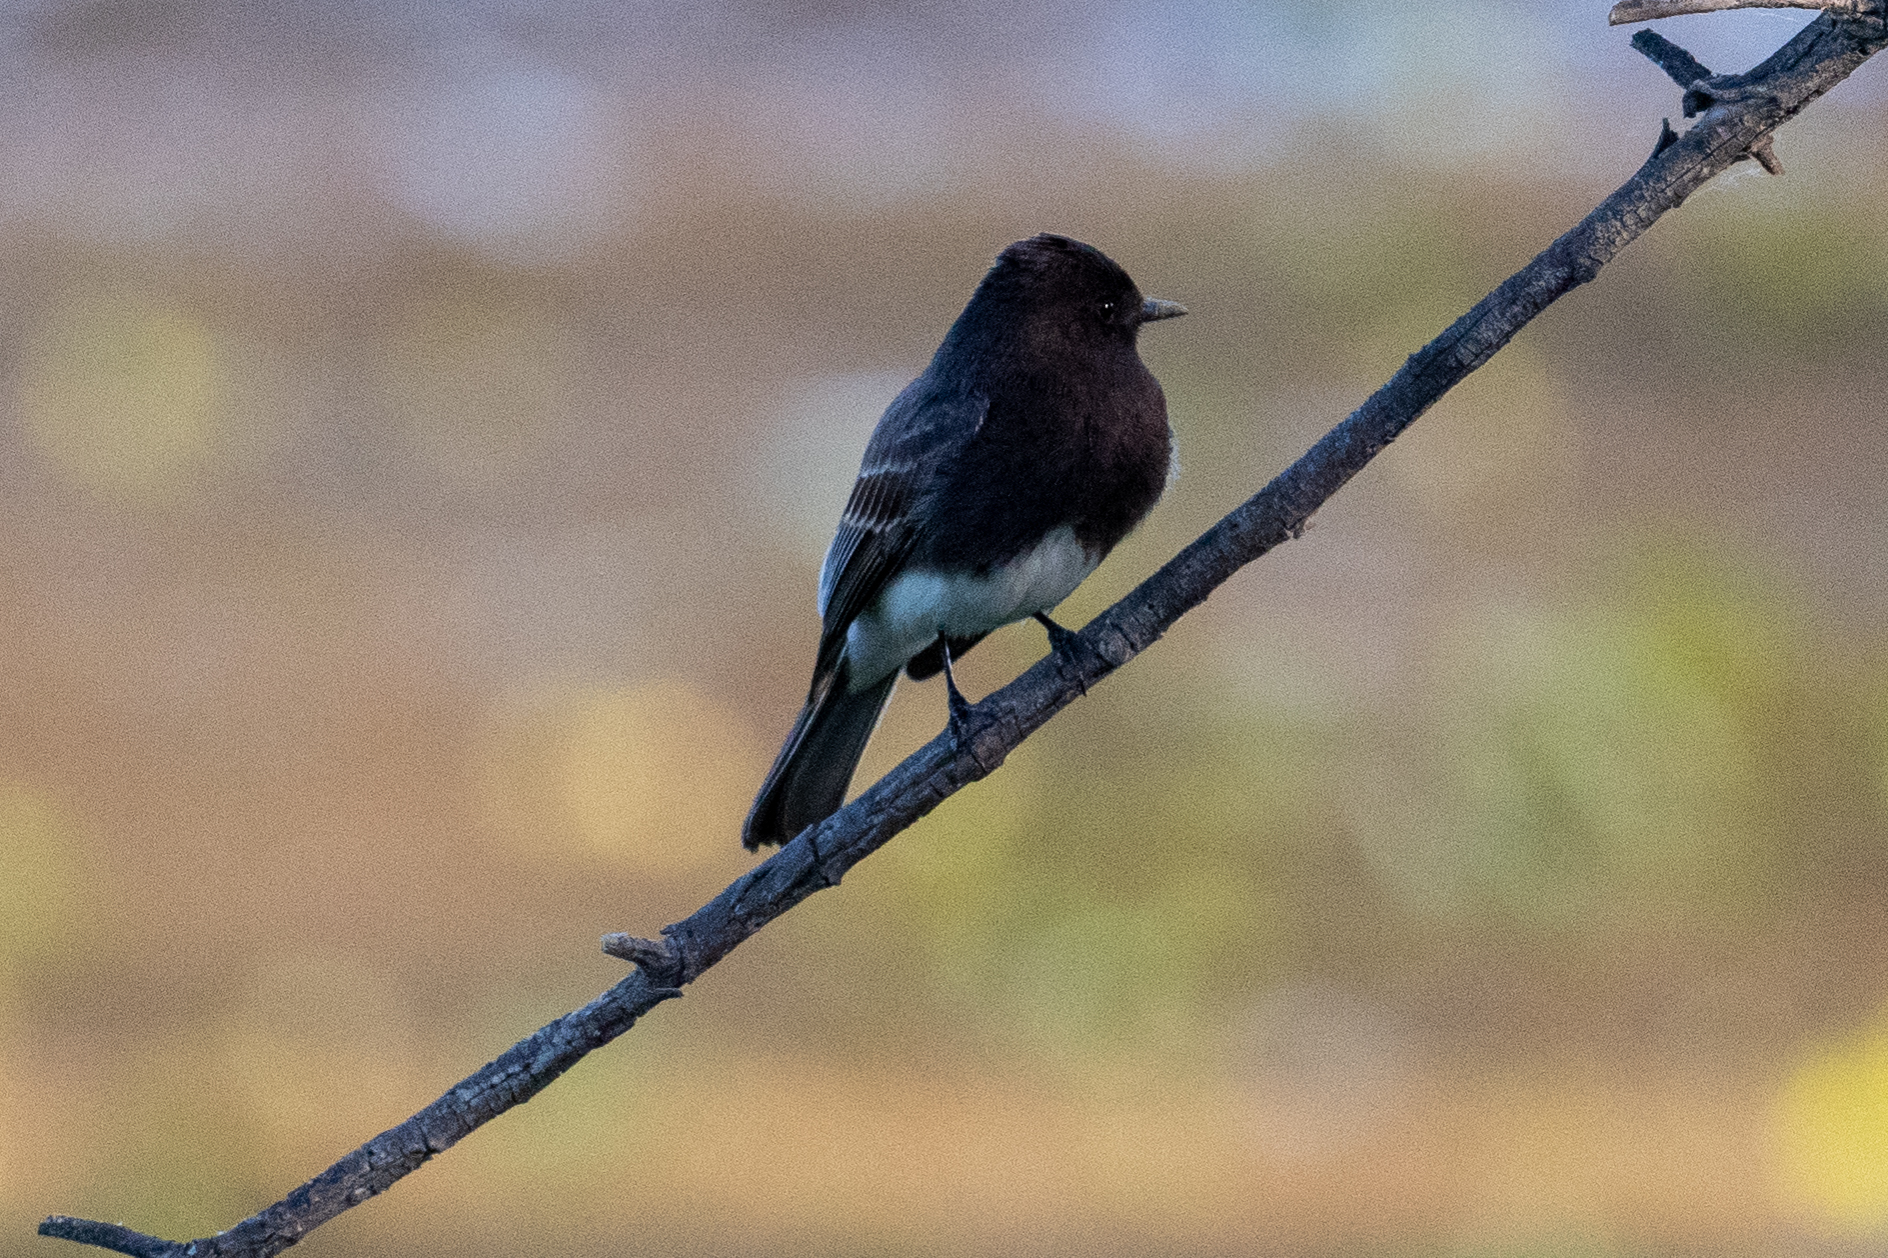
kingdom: Animalia
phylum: Chordata
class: Aves
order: Passeriformes
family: Tyrannidae
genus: Sayornis
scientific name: Sayornis nigricans
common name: Black phoebe
